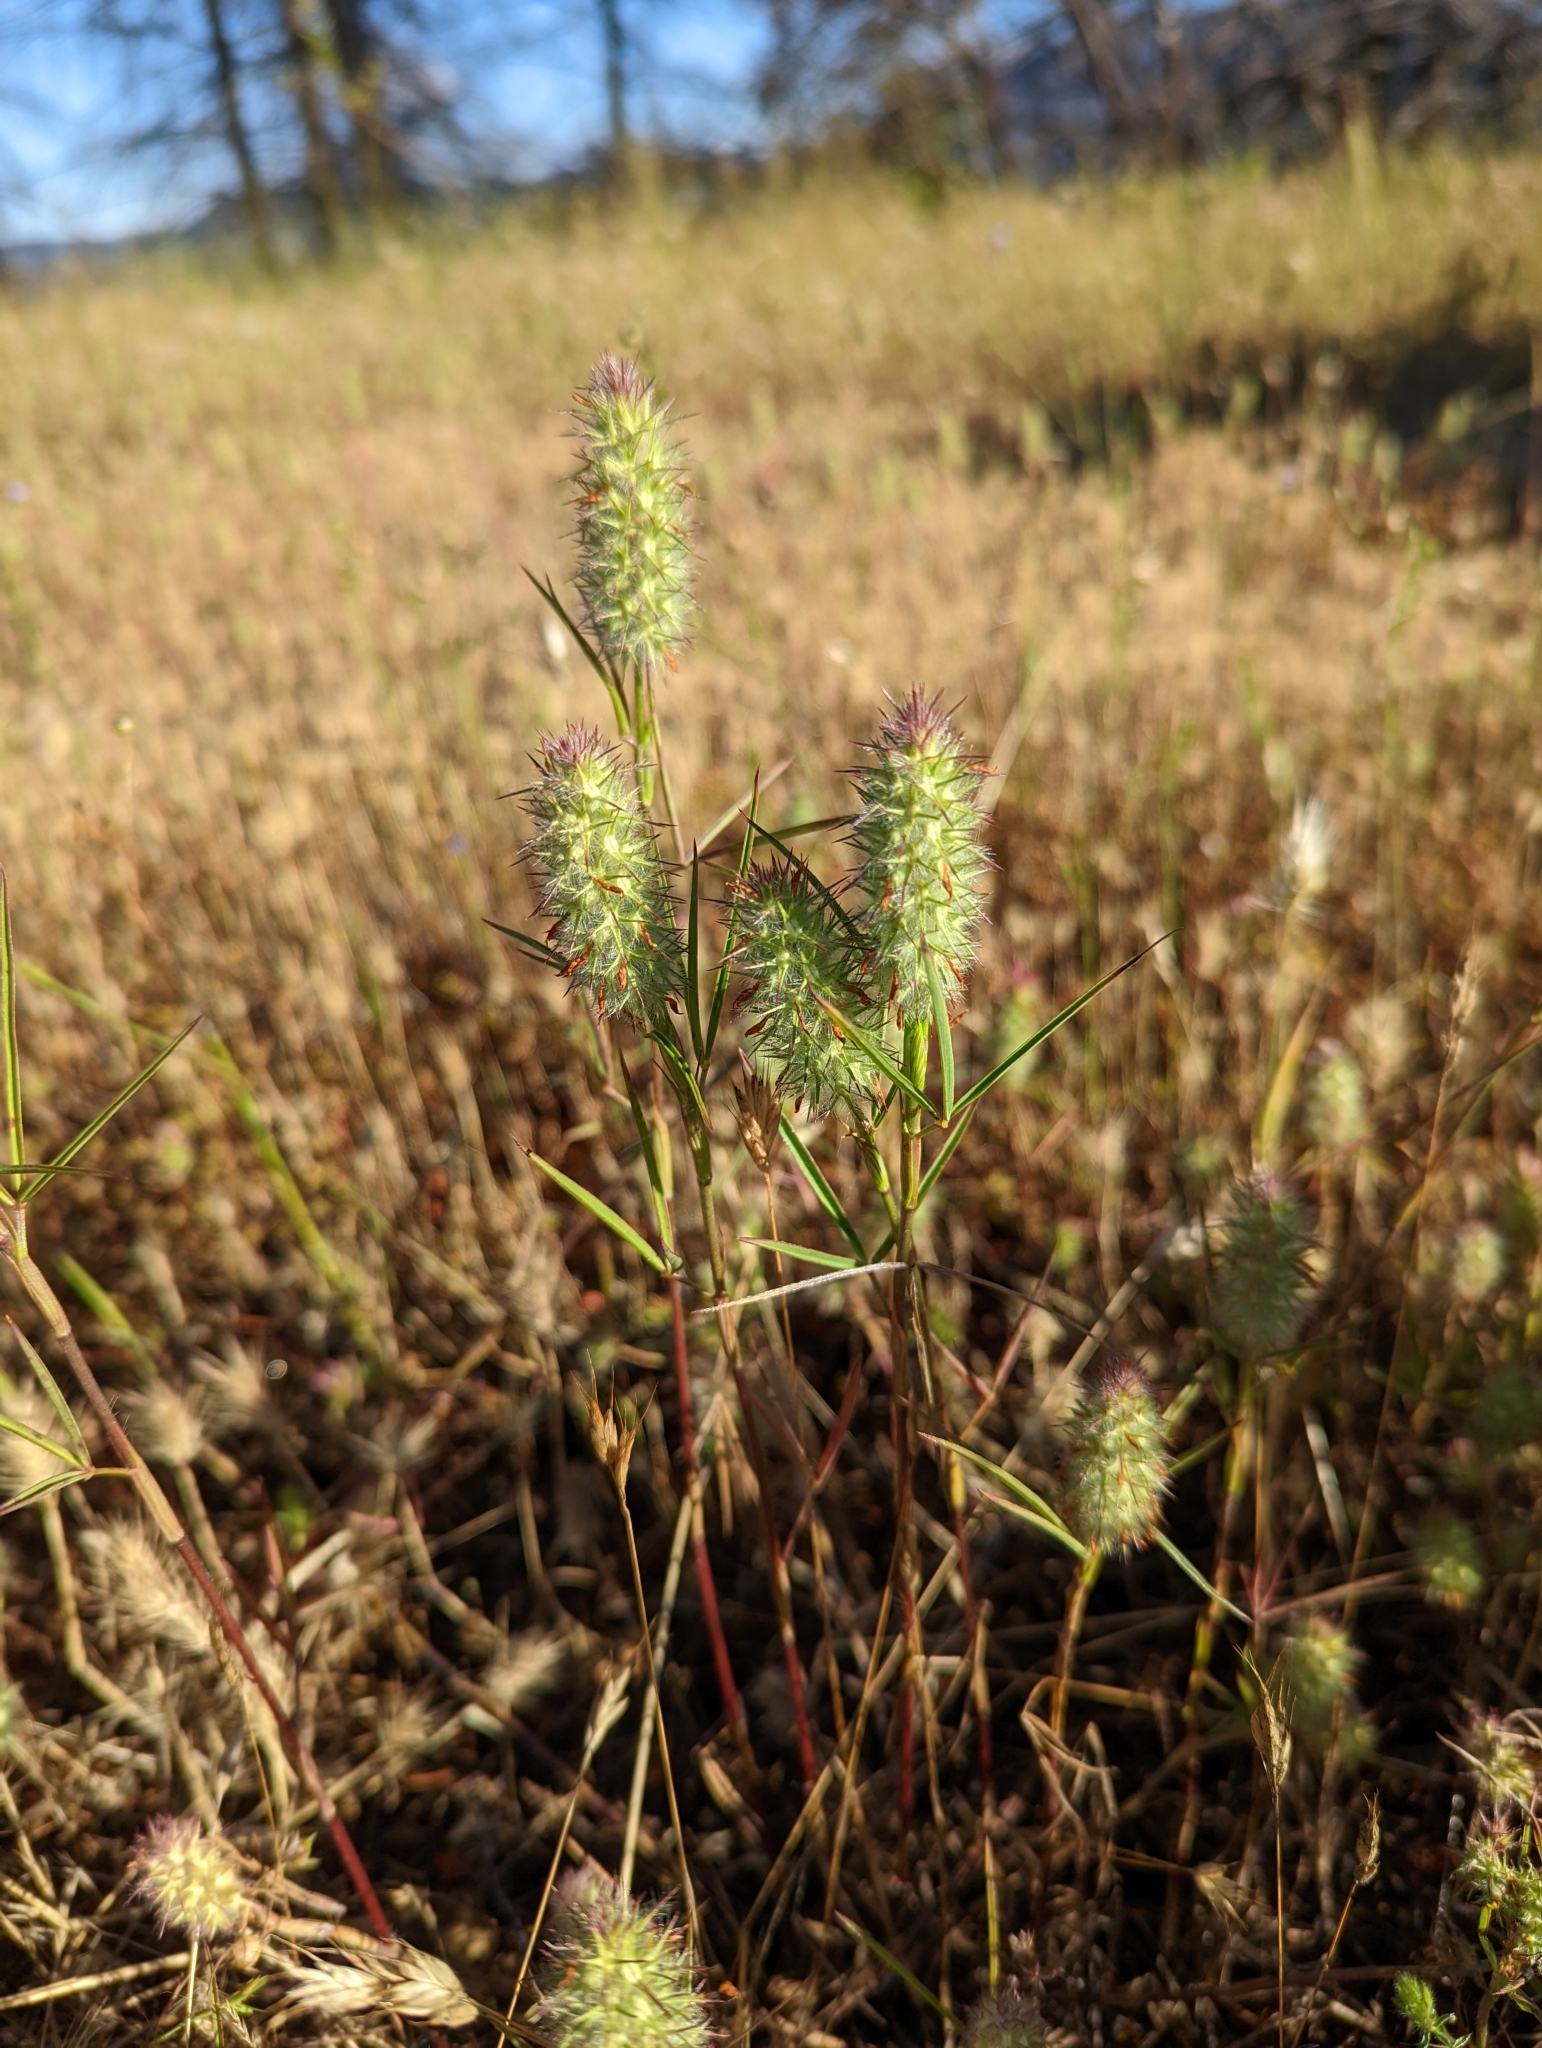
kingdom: Plantae
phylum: Tracheophyta
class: Magnoliopsida
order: Fabales
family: Fabaceae
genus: Trifolium
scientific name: Trifolium angustifolium
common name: Narrow clover
